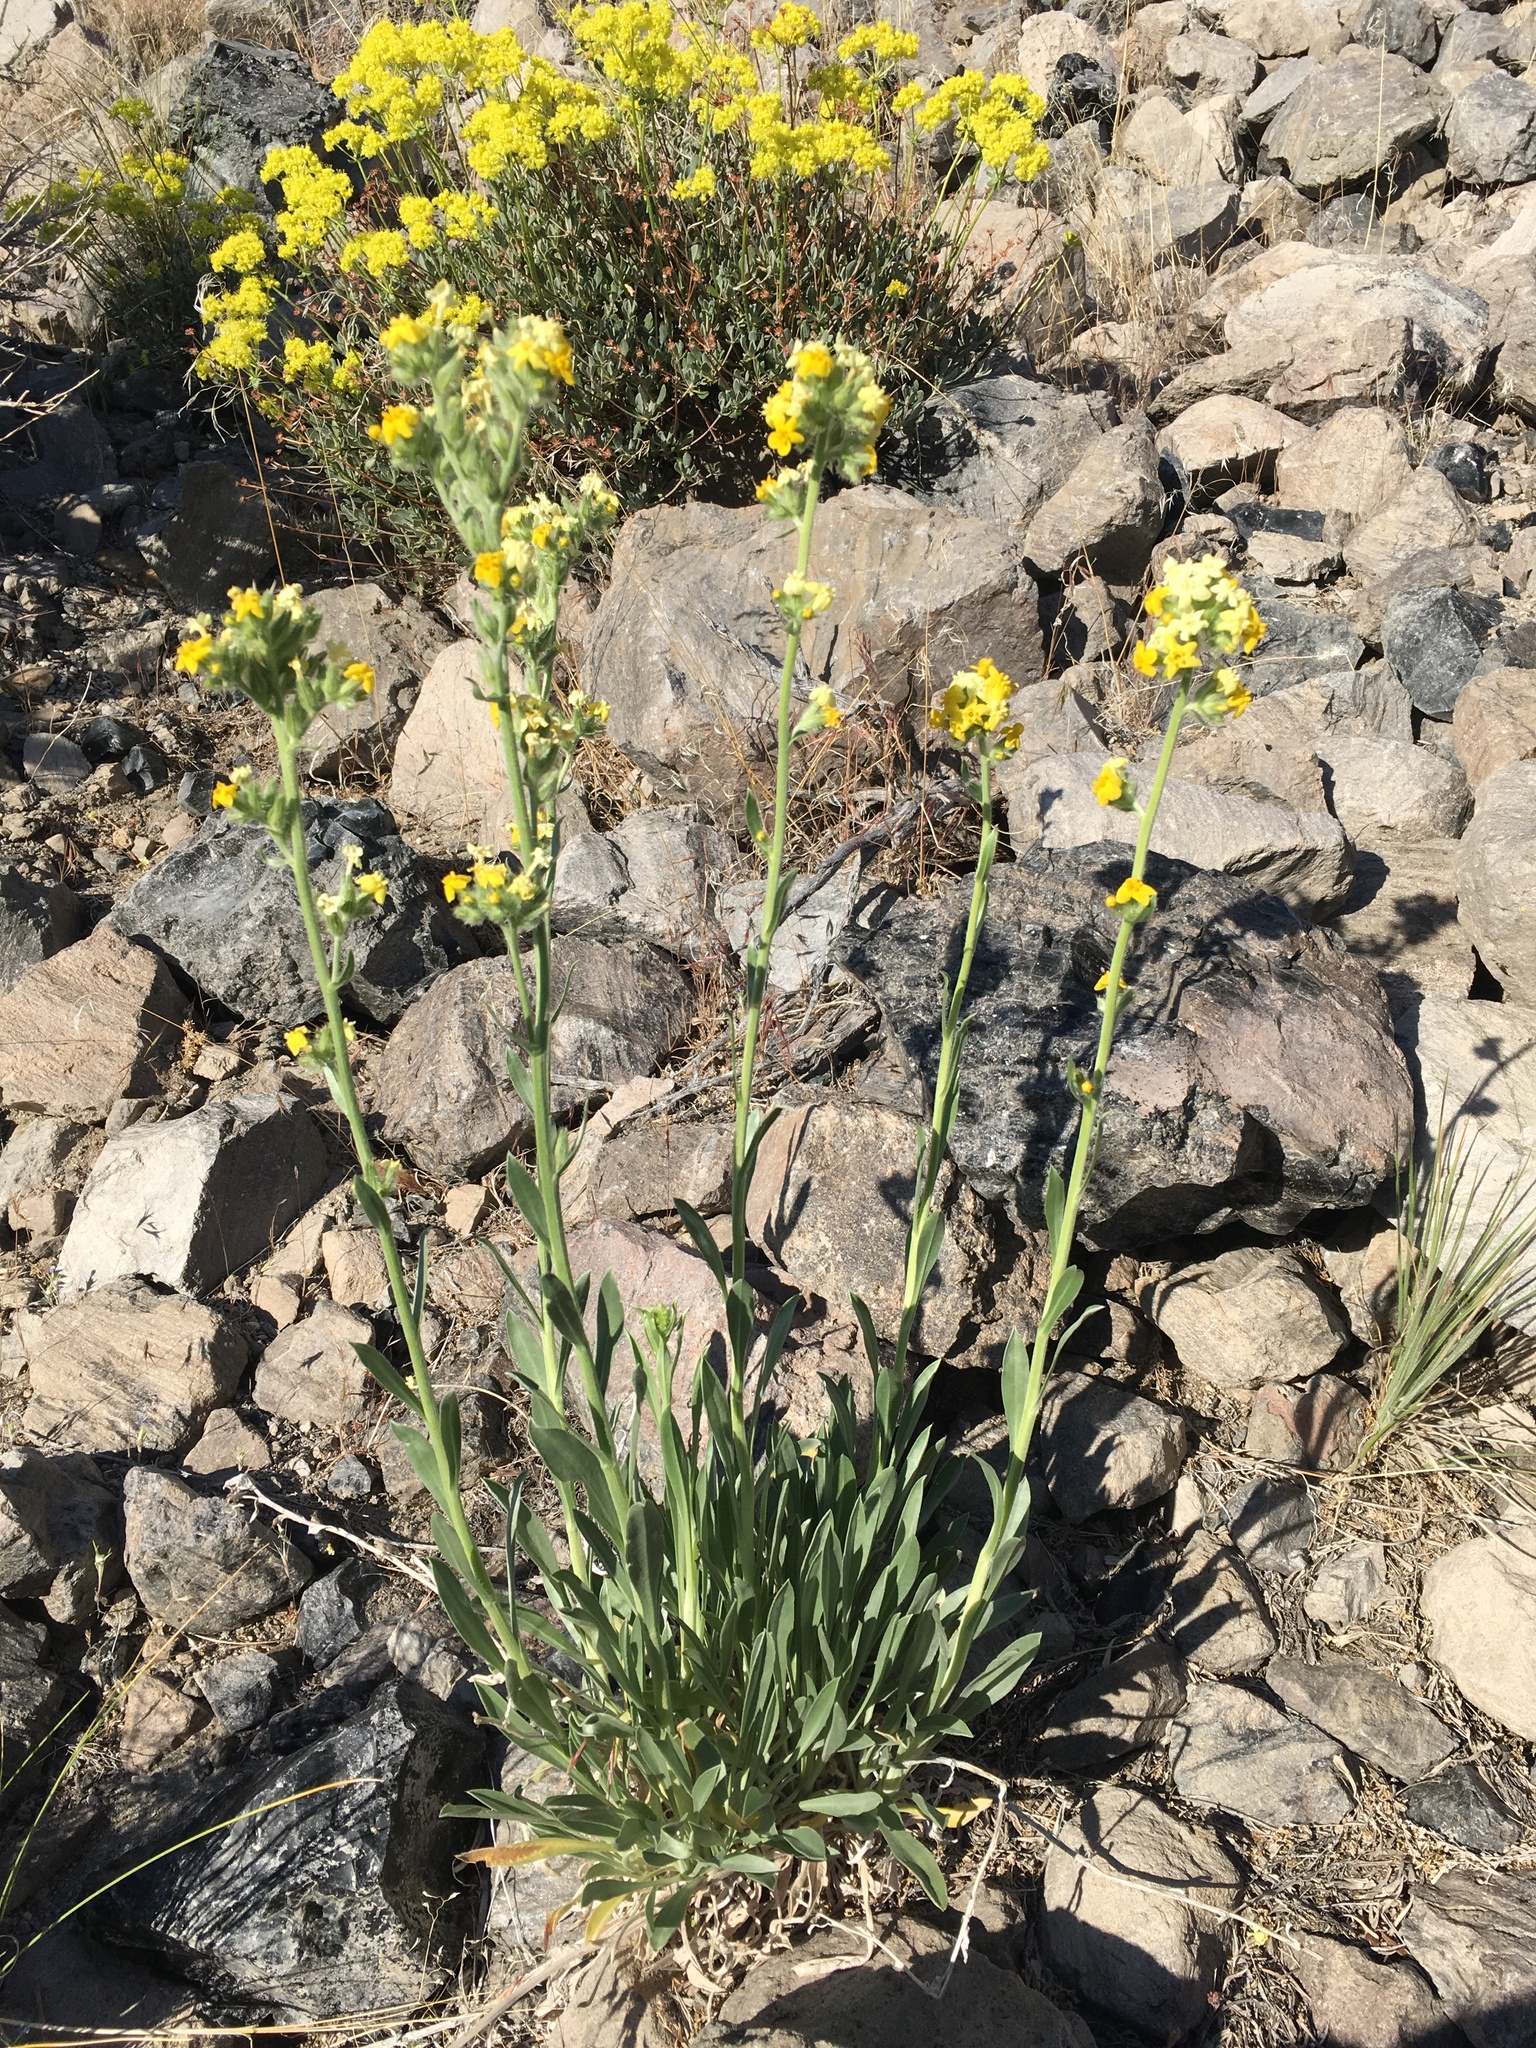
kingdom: Plantae
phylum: Tracheophyta
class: Magnoliopsida
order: Boraginales
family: Boraginaceae
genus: Oreocarya
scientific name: Oreocarya confertiflora
